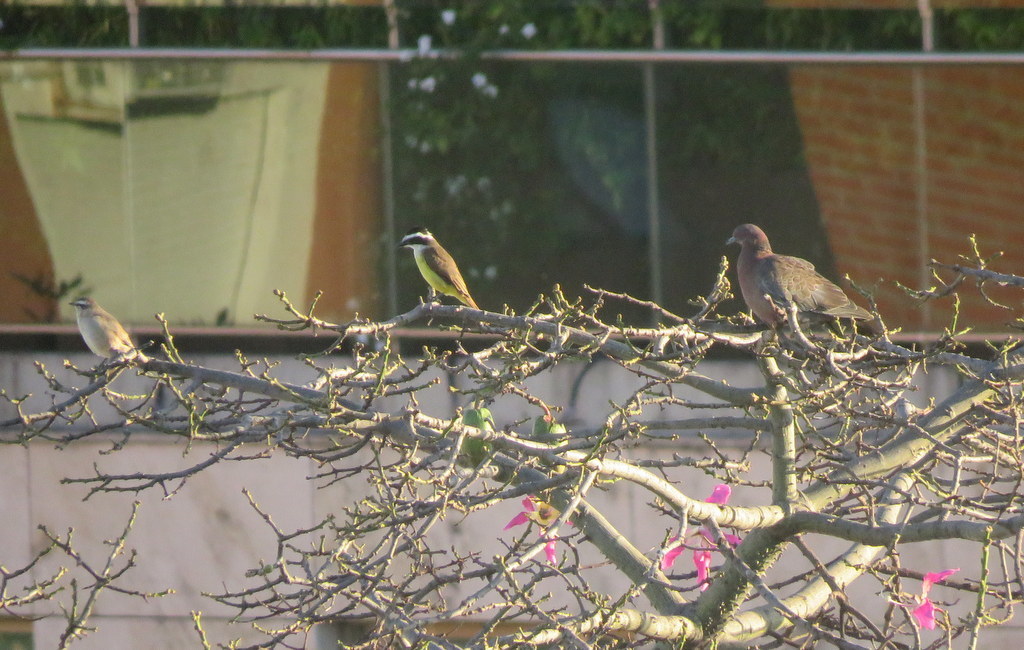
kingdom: Animalia
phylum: Chordata
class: Aves
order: Passeriformes
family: Tyrannidae
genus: Pitangus
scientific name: Pitangus sulphuratus
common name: Great kiskadee
